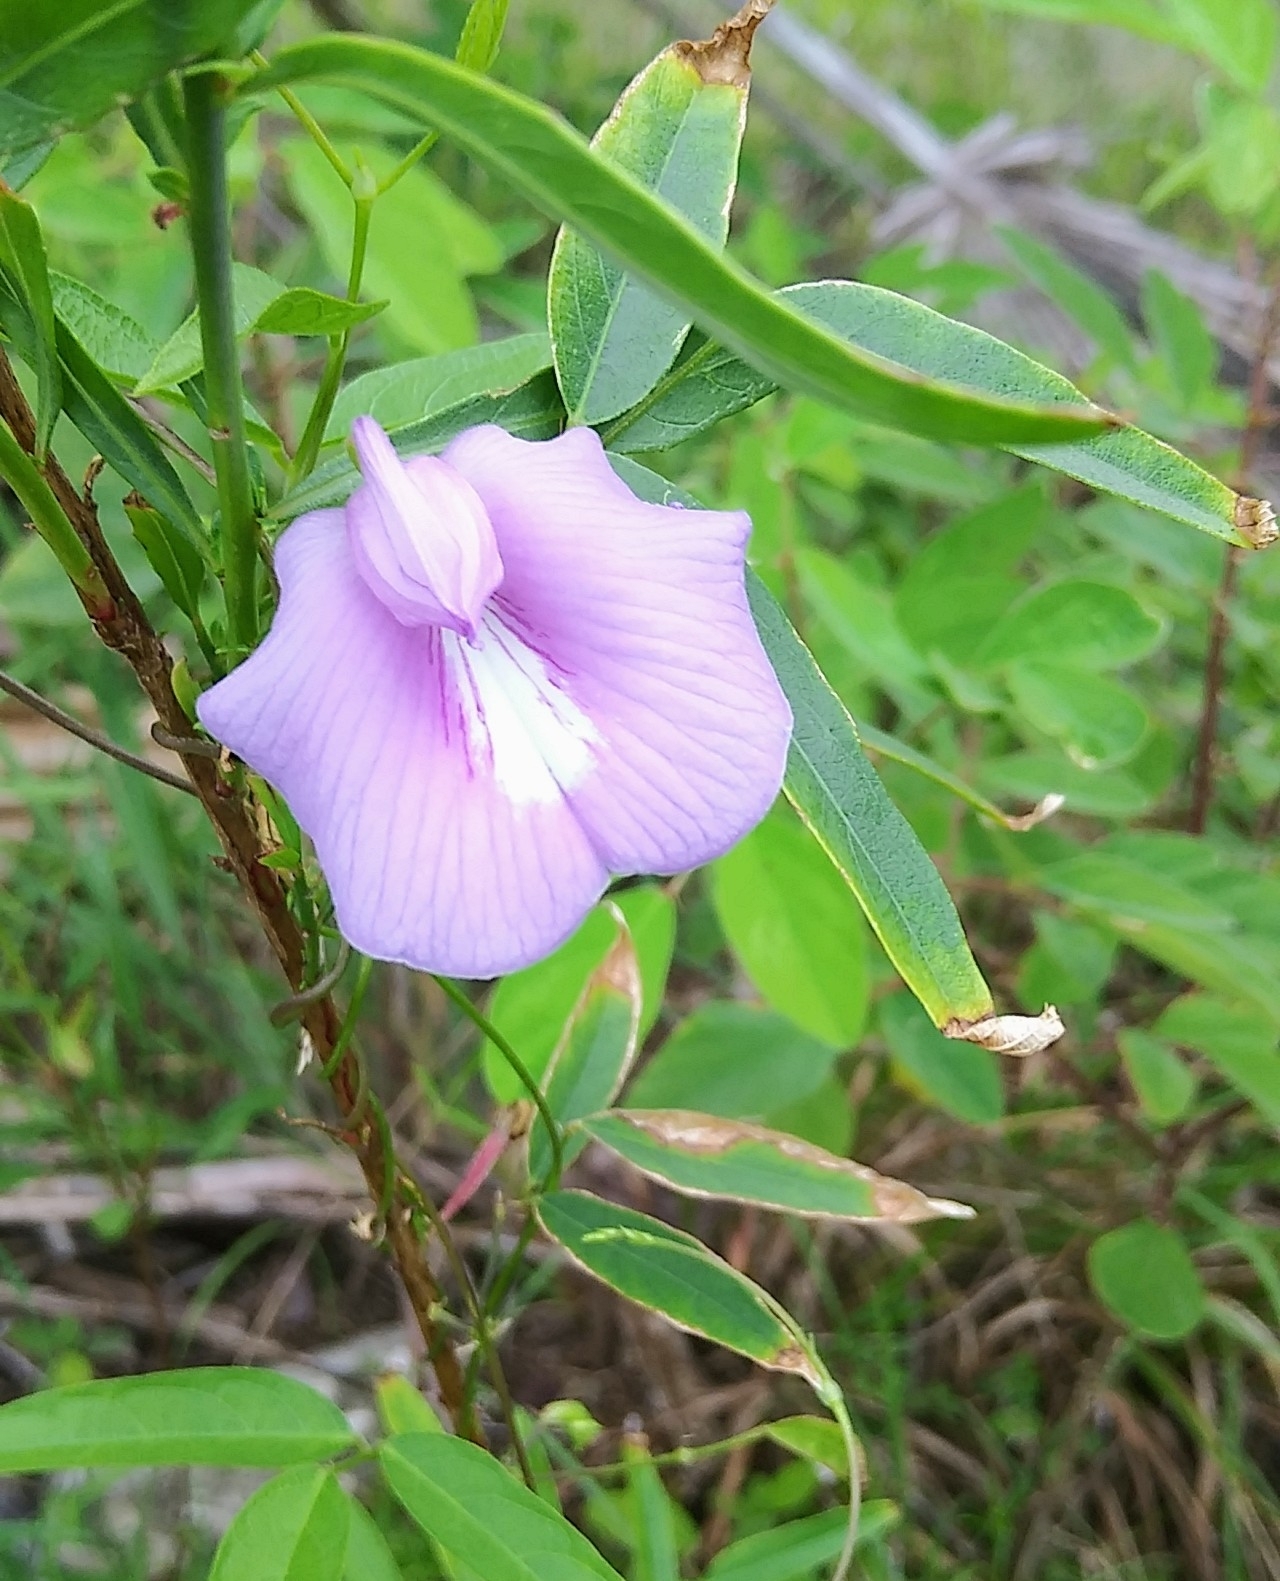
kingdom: Plantae
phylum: Tracheophyta
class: Magnoliopsida
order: Fabales
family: Fabaceae
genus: Centrosema
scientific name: Centrosema virginianum
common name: Butterfly-pea
